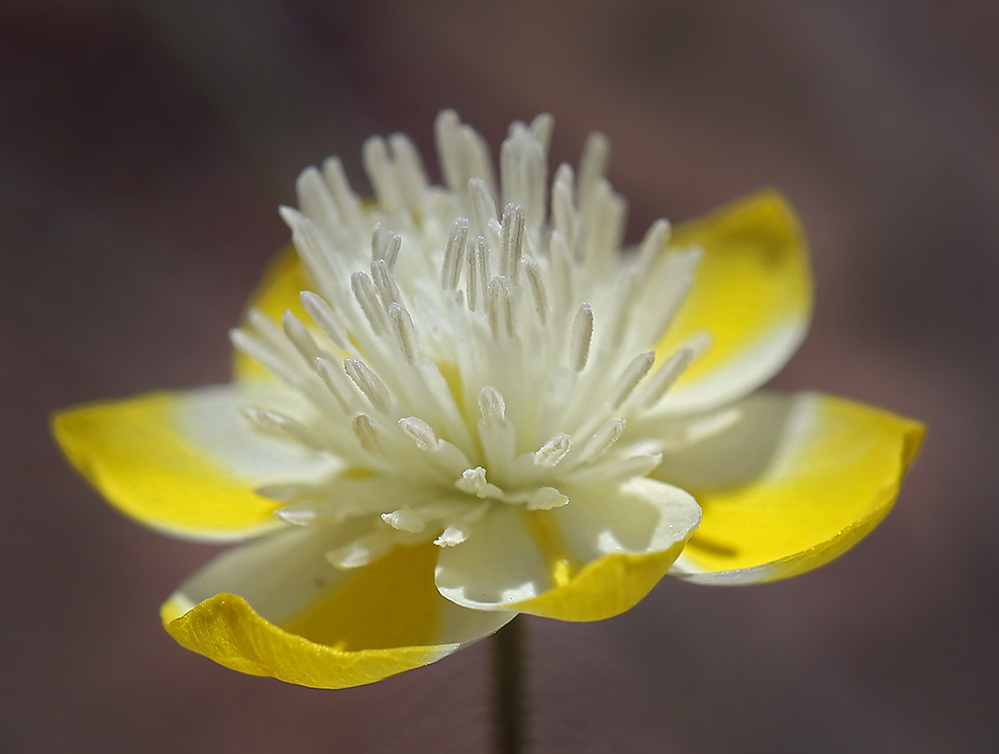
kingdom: Plantae
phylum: Tracheophyta
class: Magnoliopsida
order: Ranunculales
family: Papaveraceae
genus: Platystemon
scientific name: Platystemon californicus
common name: Cream-cups
